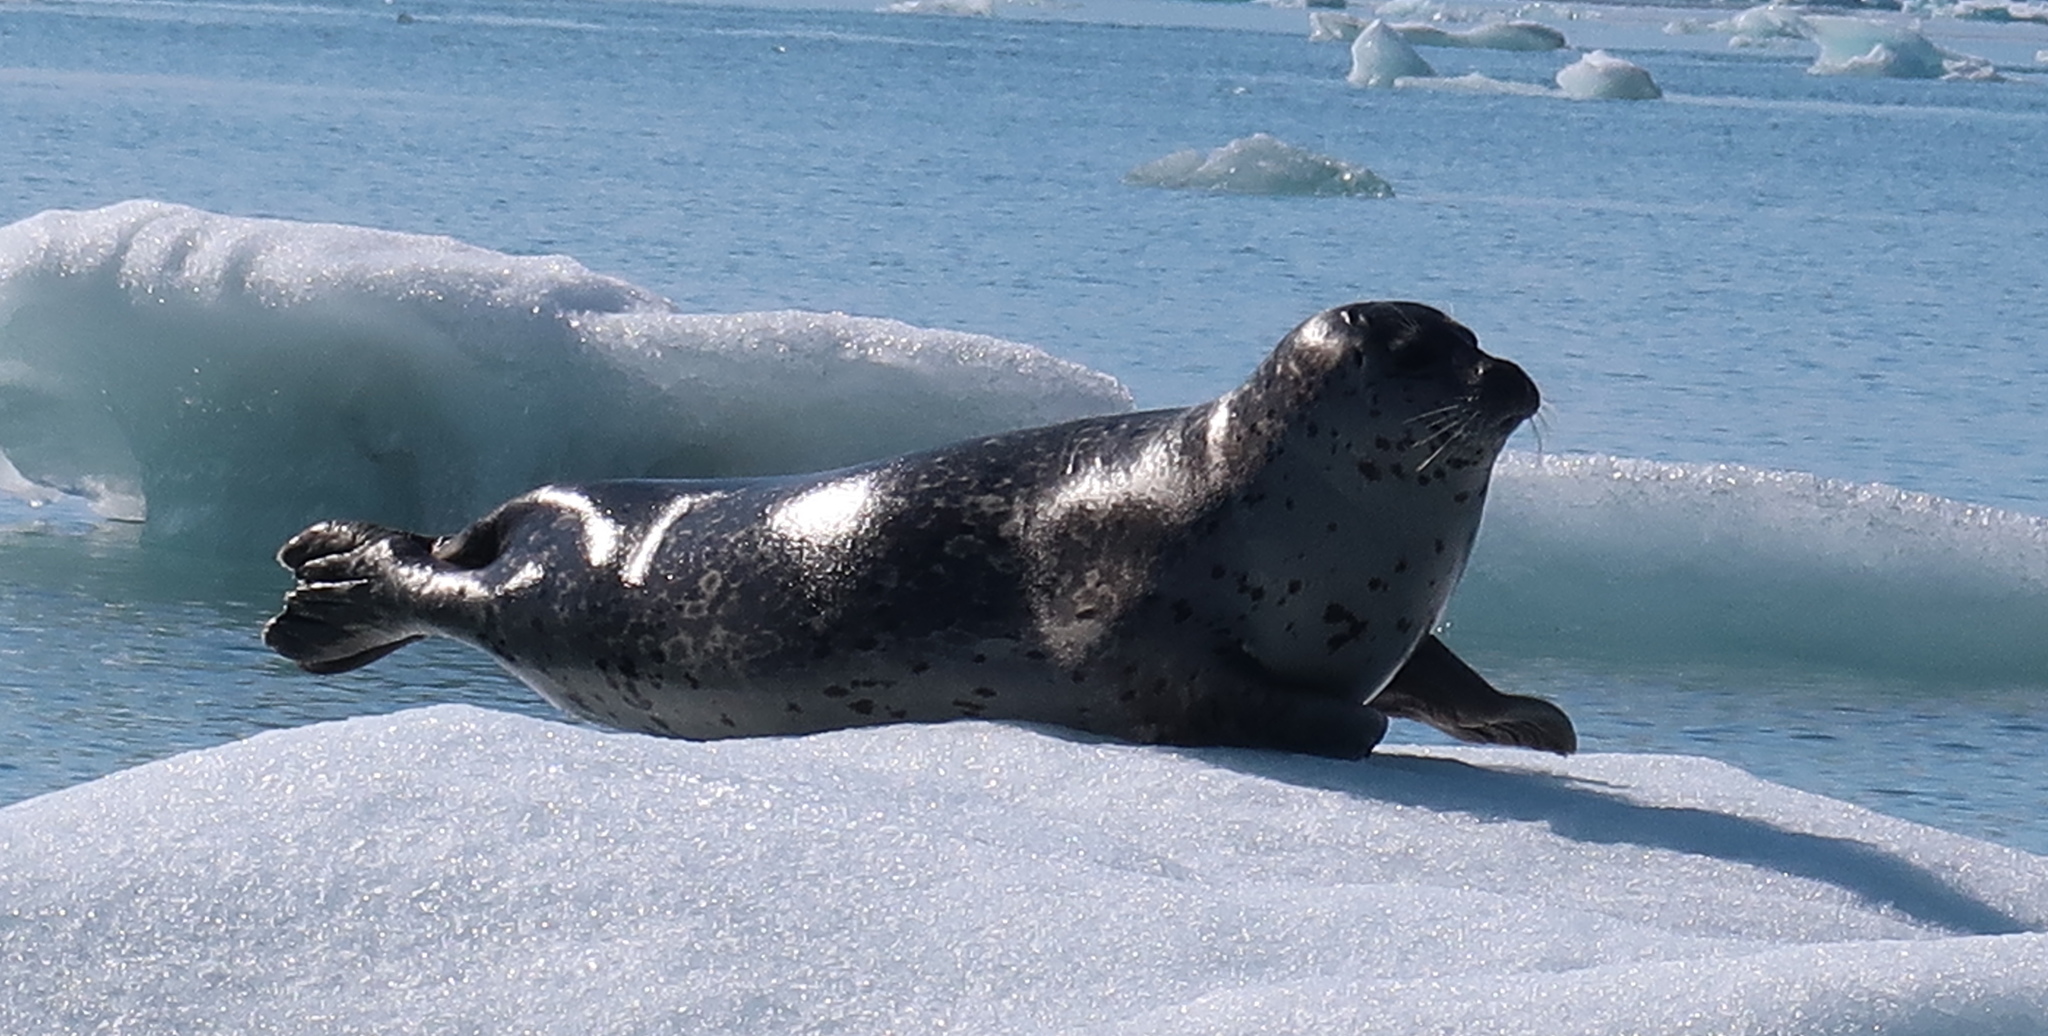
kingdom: Animalia
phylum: Chordata
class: Mammalia
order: Carnivora
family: Phocidae
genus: Phoca
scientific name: Phoca vitulina
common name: Harbor seal
